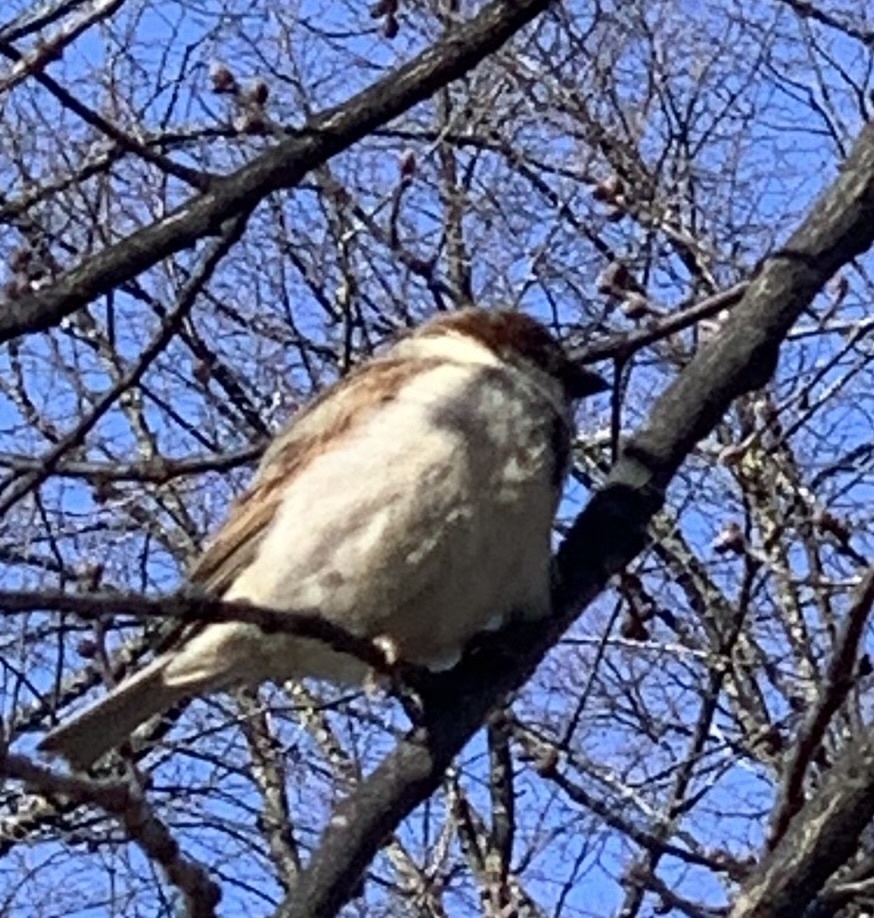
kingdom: Animalia
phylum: Chordata
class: Aves
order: Passeriformes
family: Passeridae
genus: Passer
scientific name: Passer domesticus
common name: House sparrow
